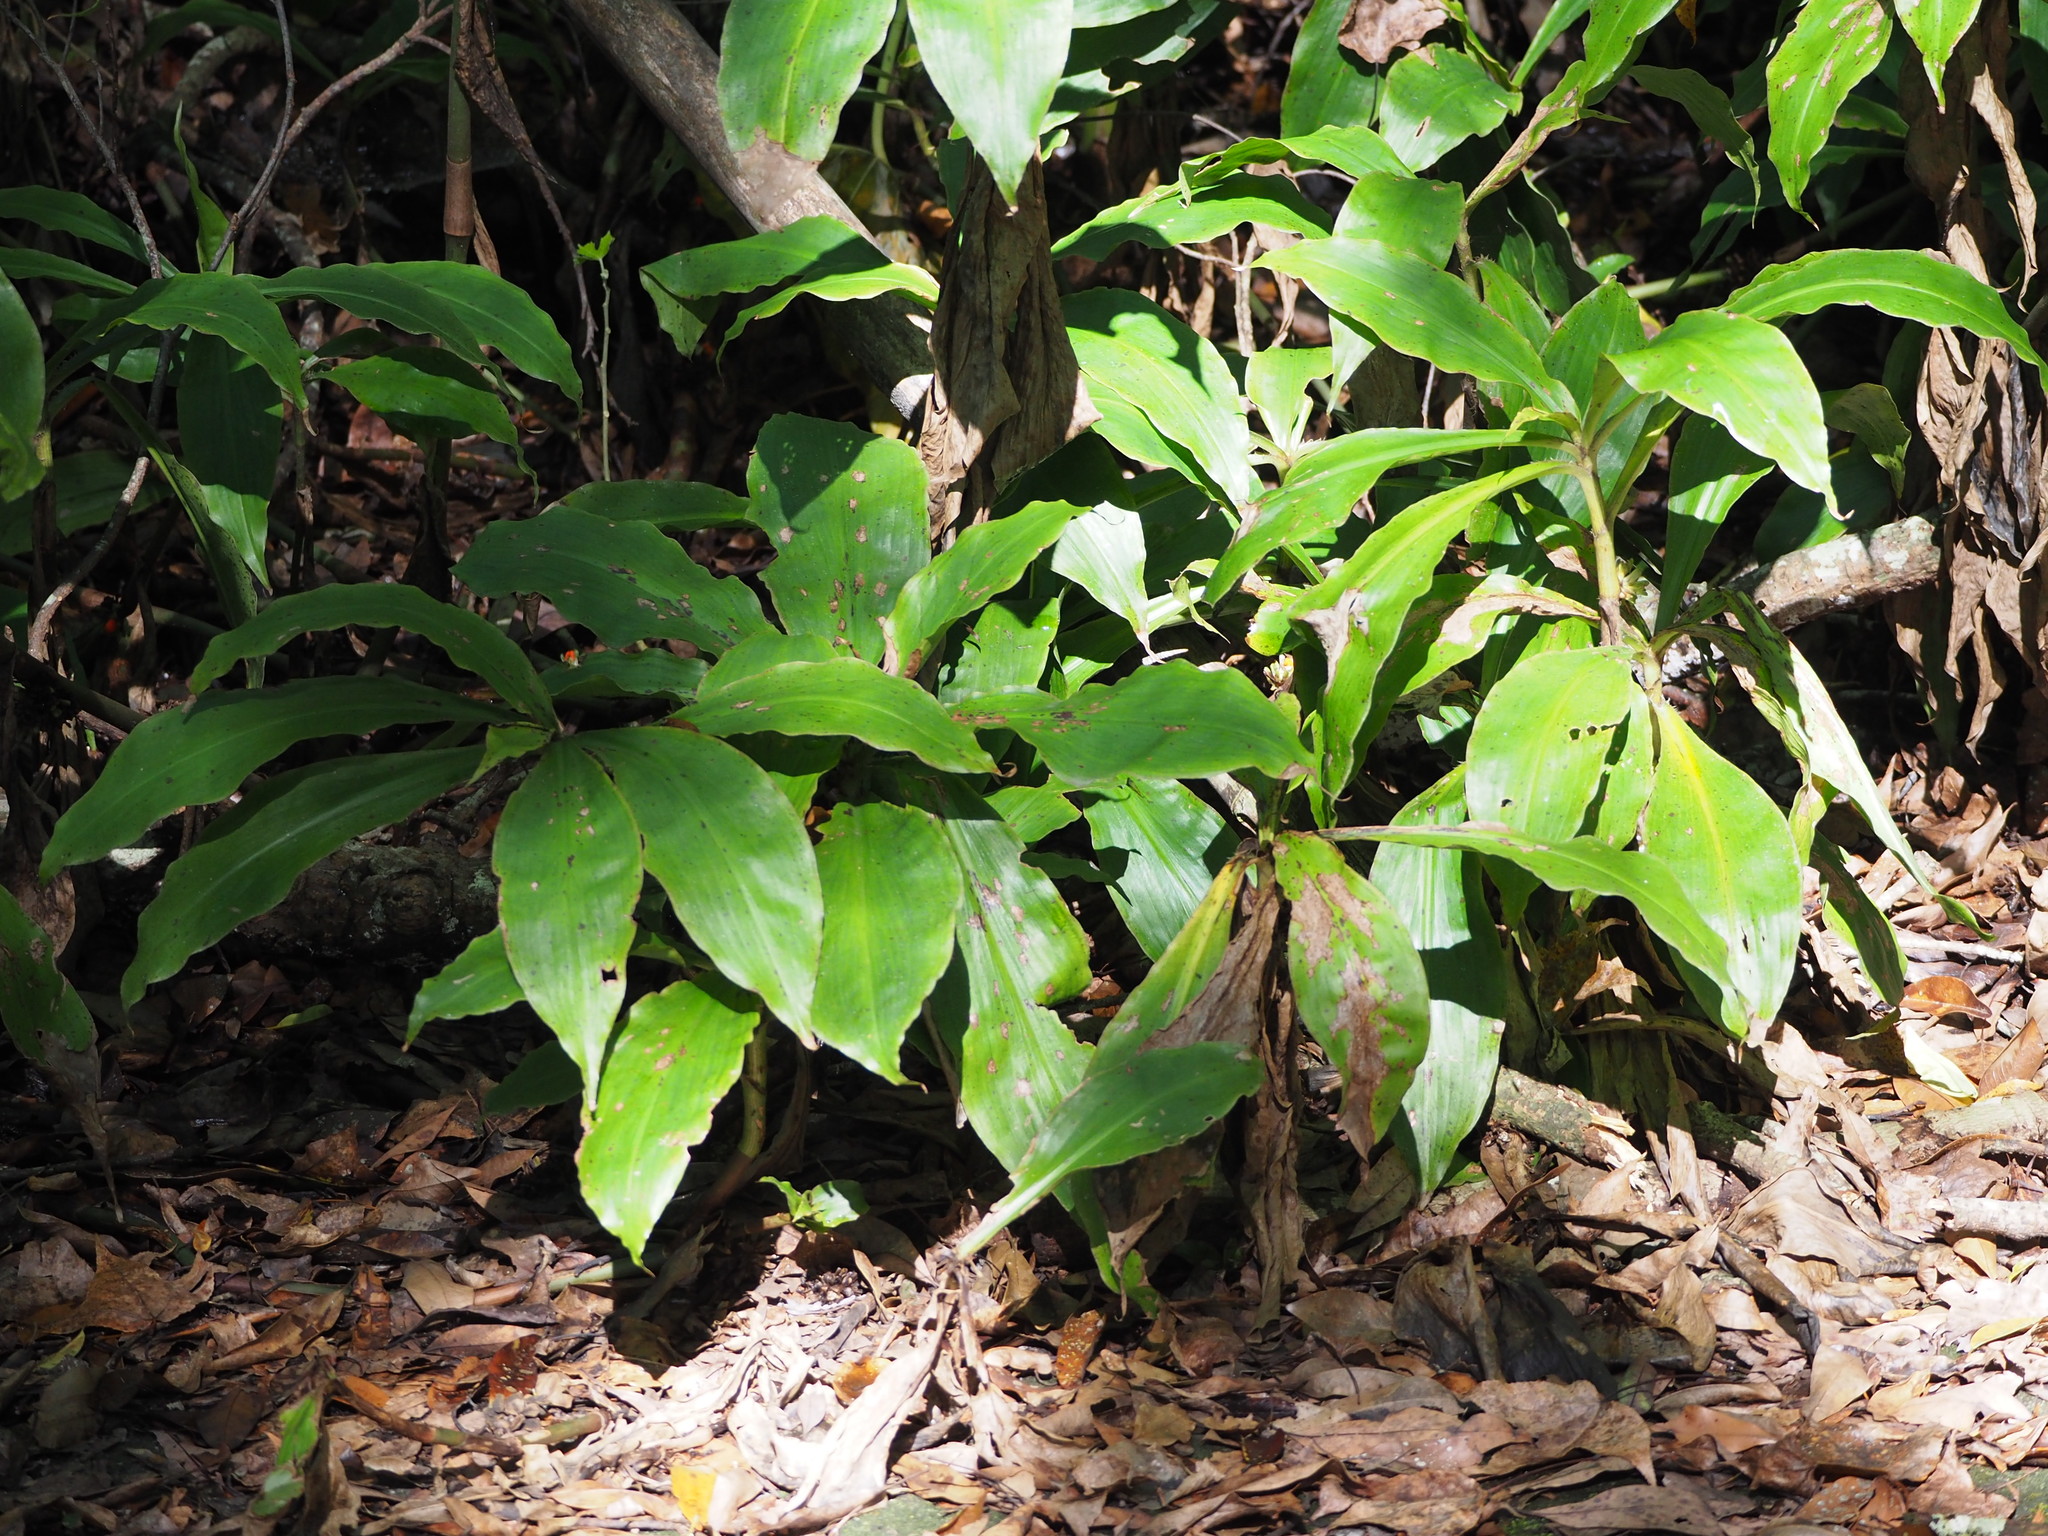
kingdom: Plantae
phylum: Tracheophyta
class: Liliopsida
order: Commelinales
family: Commelinaceae
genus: Amischotolype
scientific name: Amischotolype glabrata
